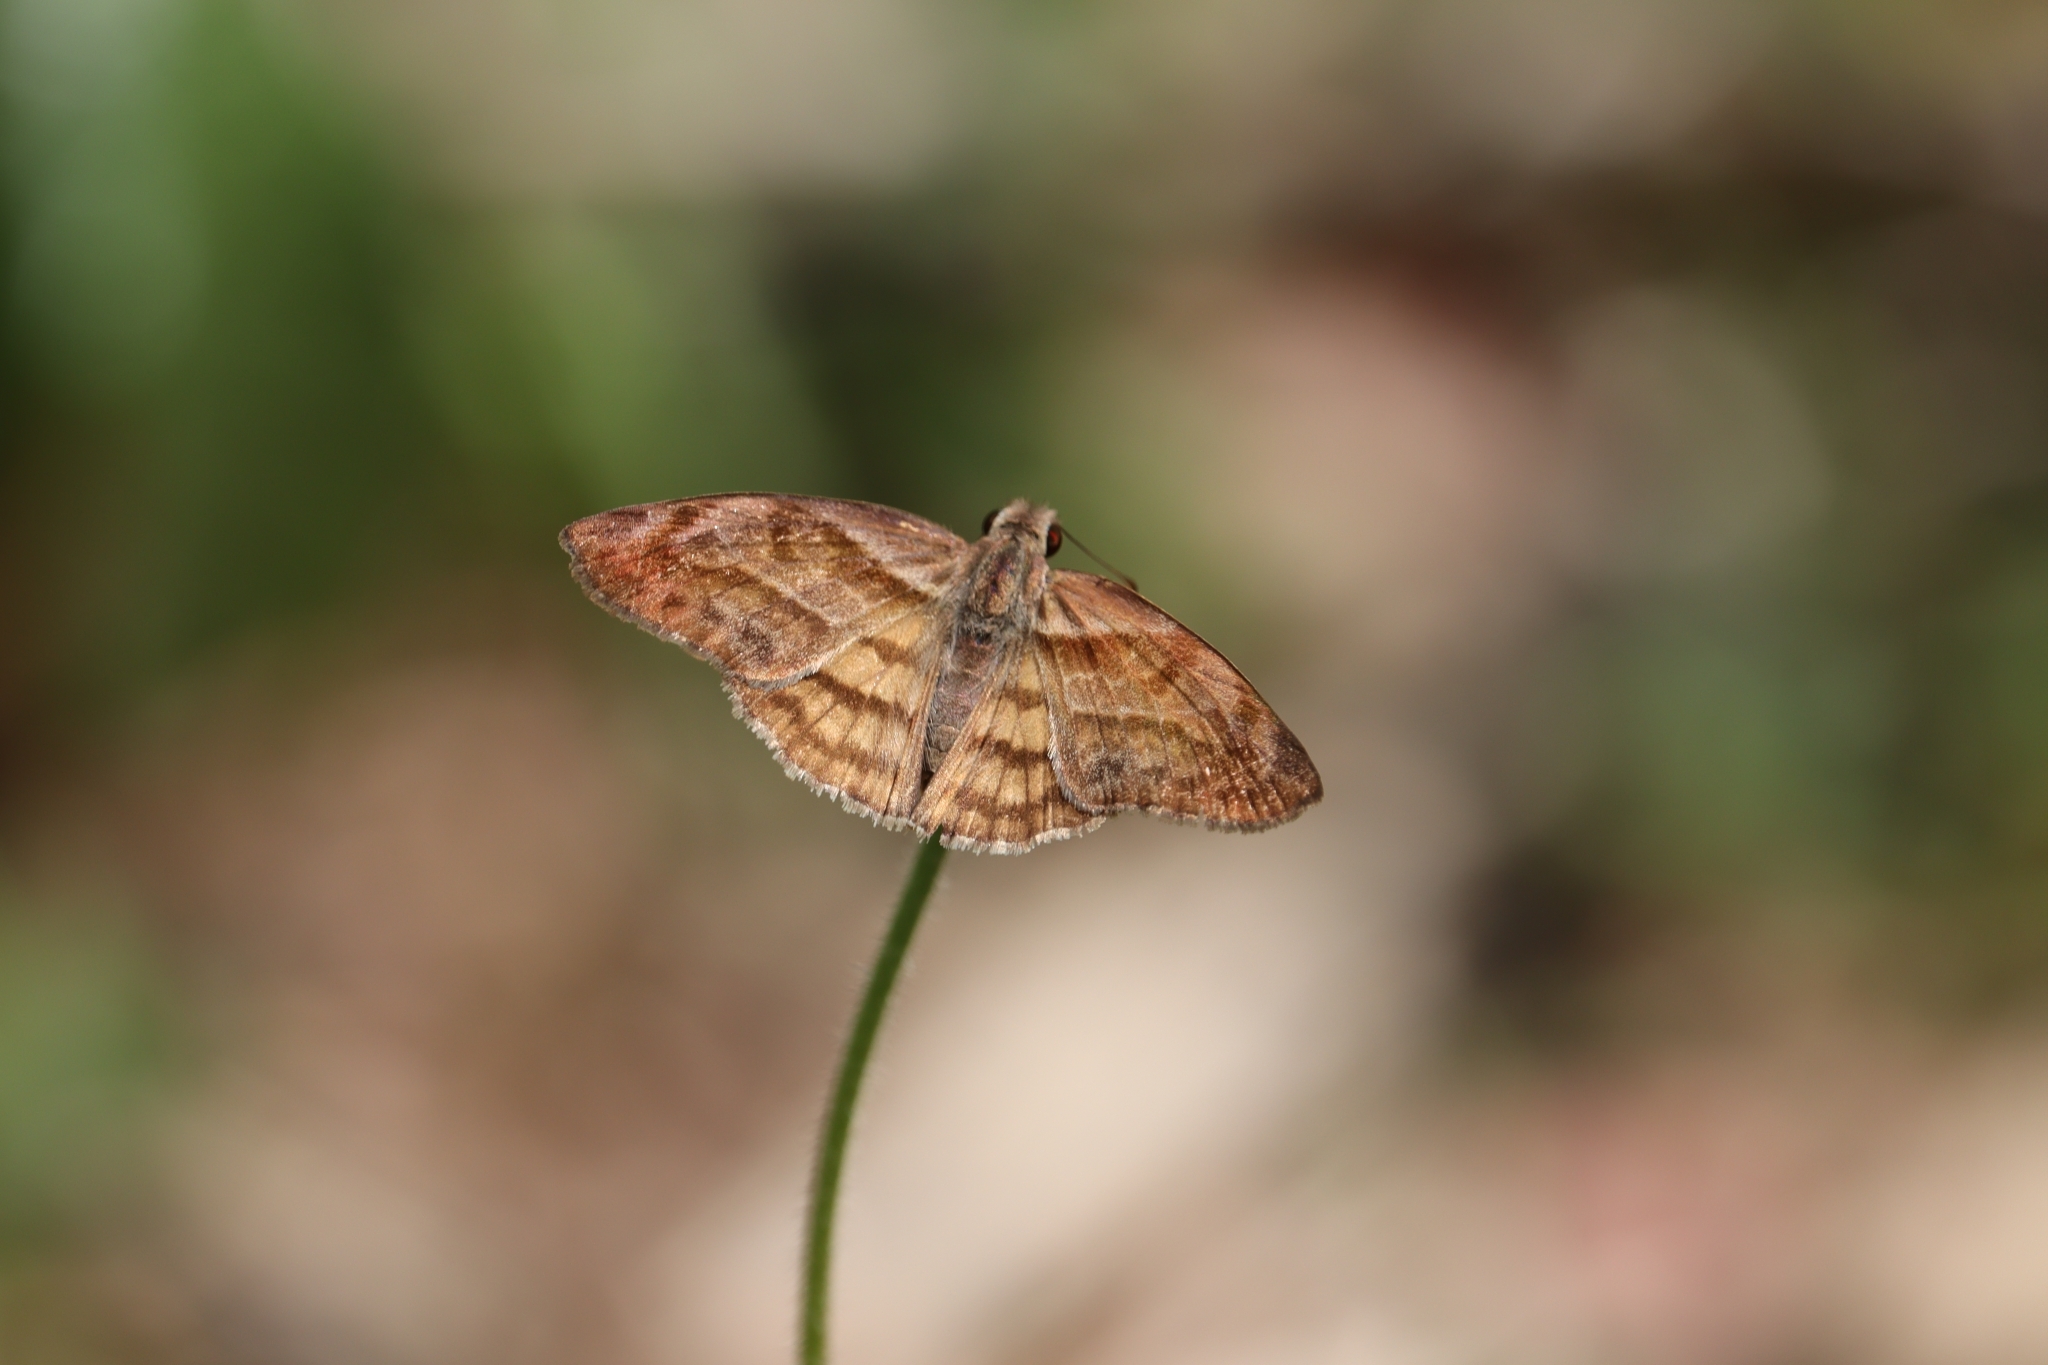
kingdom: Animalia
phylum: Arthropoda
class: Insecta
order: Lepidoptera
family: Hesperiidae
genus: Timochares
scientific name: Timochares trifasciata
